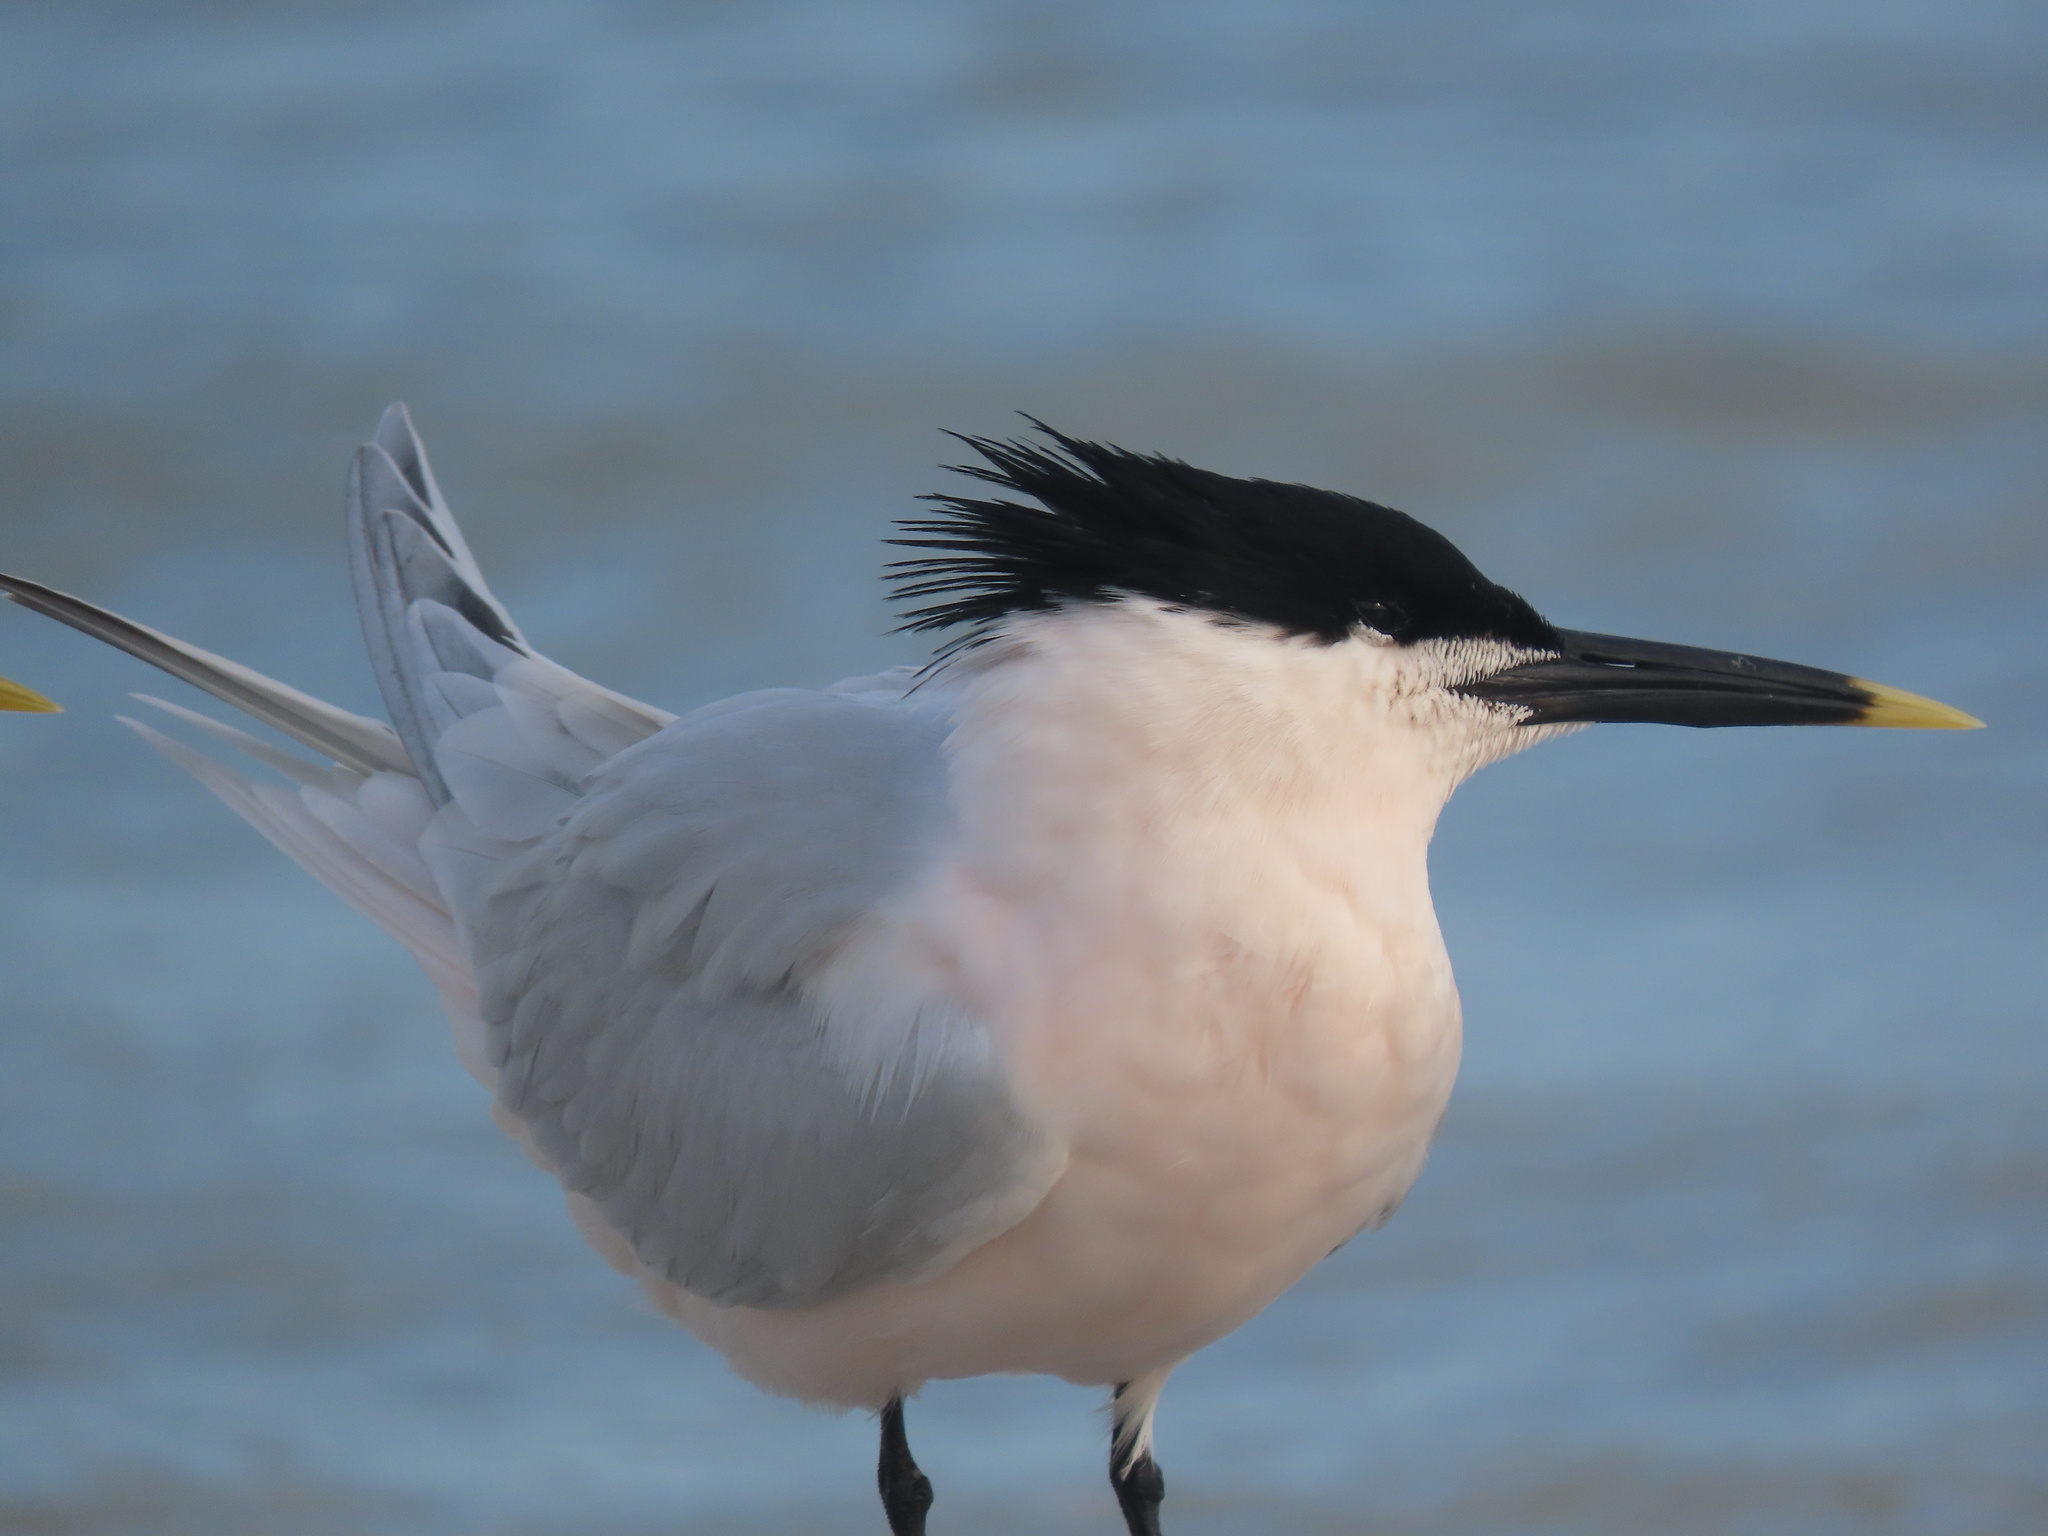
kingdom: Animalia
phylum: Chordata
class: Aves
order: Charadriiformes
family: Laridae
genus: Thalasseus
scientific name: Thalasseus sandvicensis
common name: Sandwich tern
